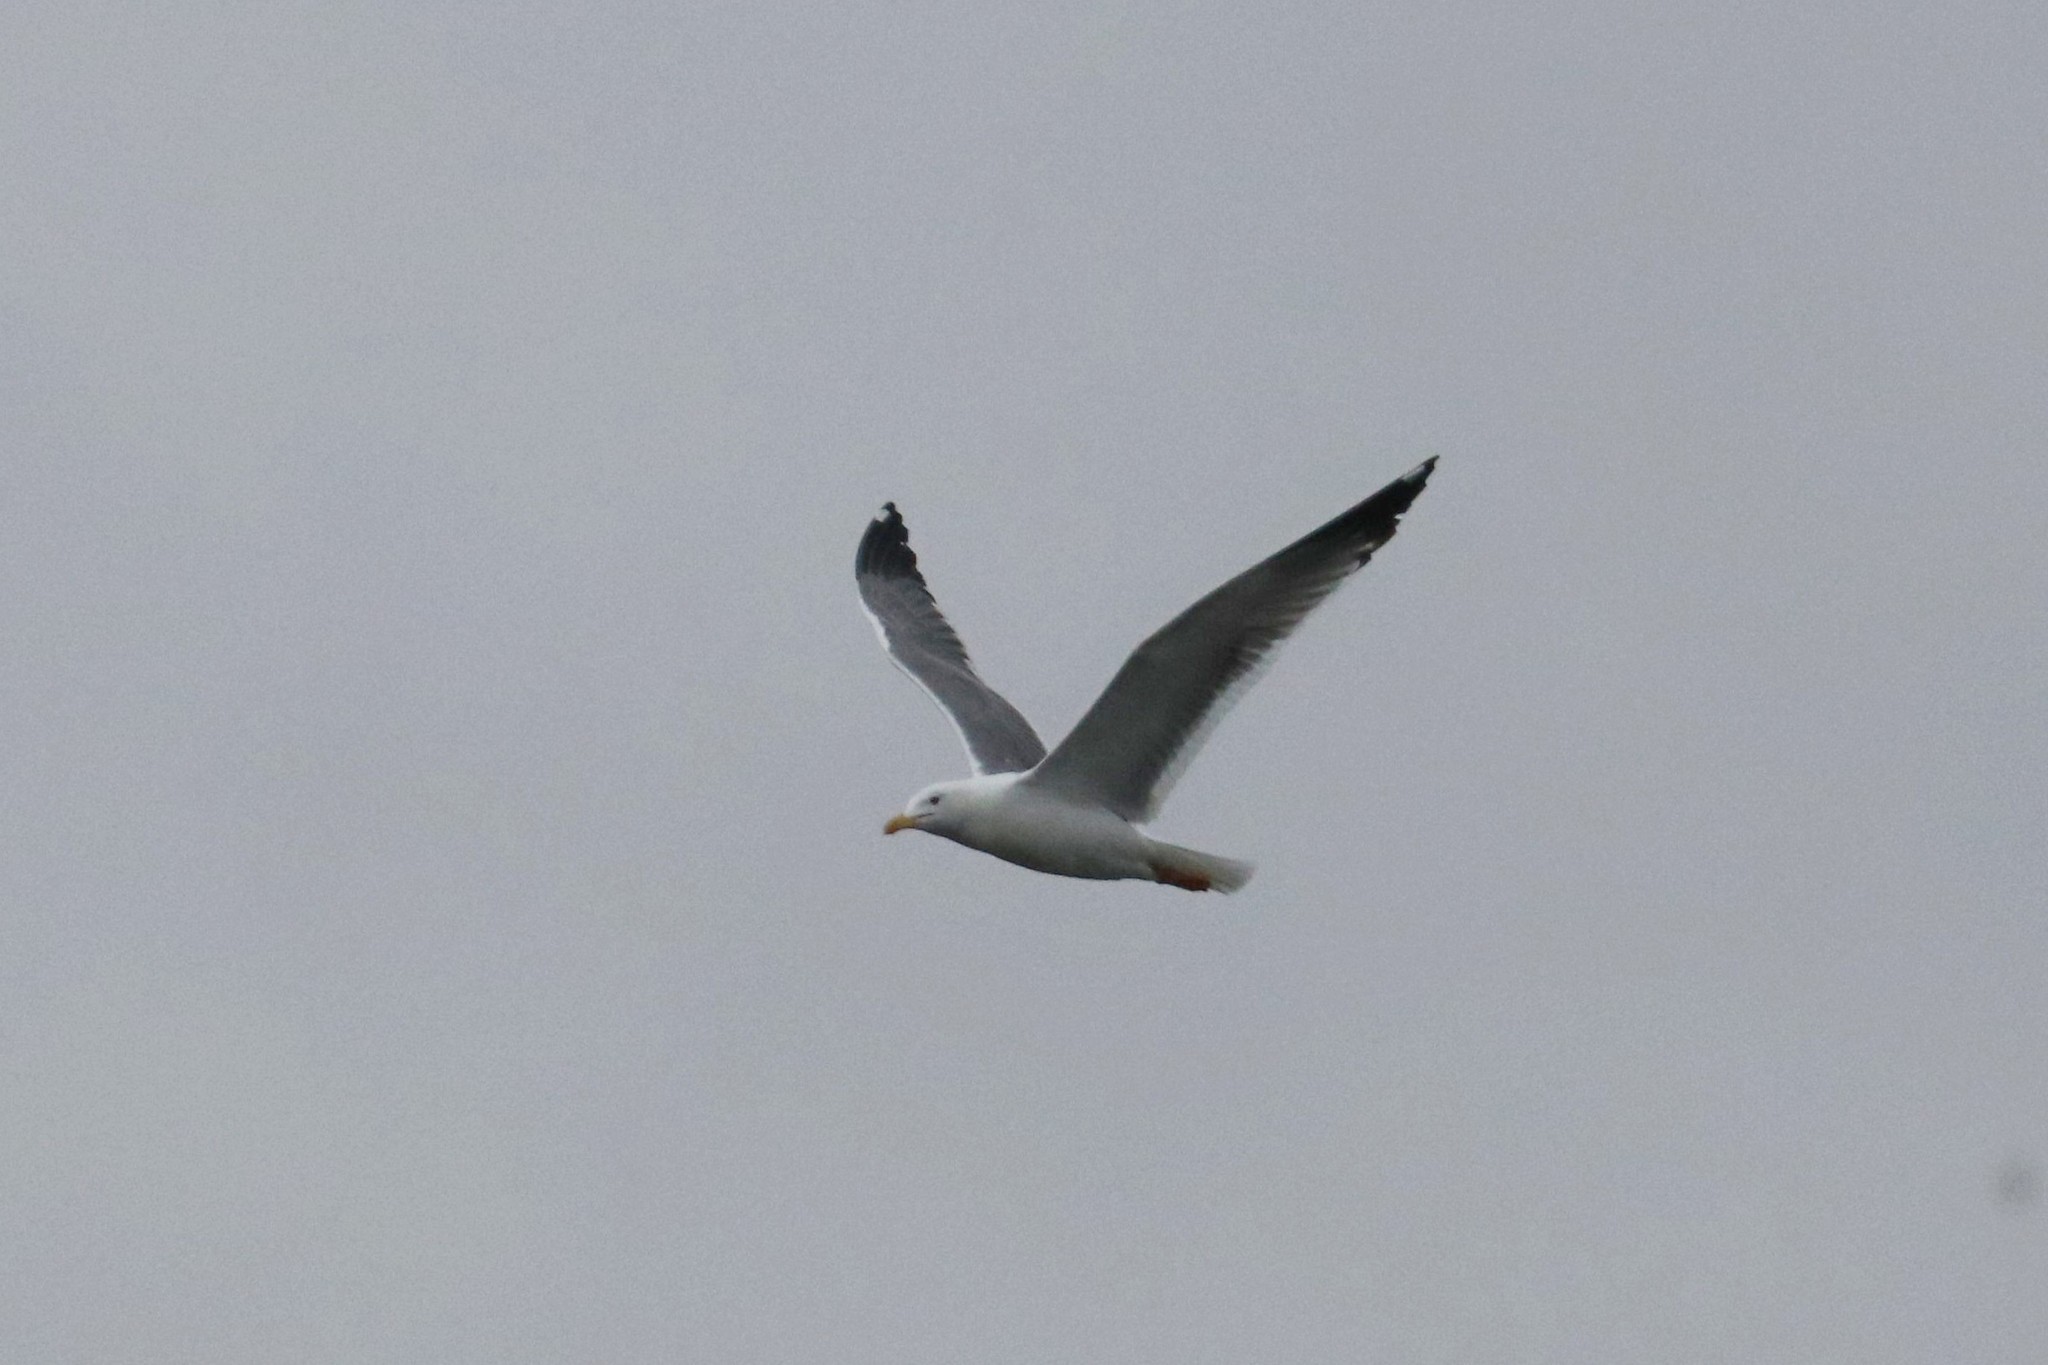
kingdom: Animalia
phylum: Chordata
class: Aves
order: Charadriiformes
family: Laridae
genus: Larus
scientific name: Larus fuscus
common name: Lesser black-backed gull
